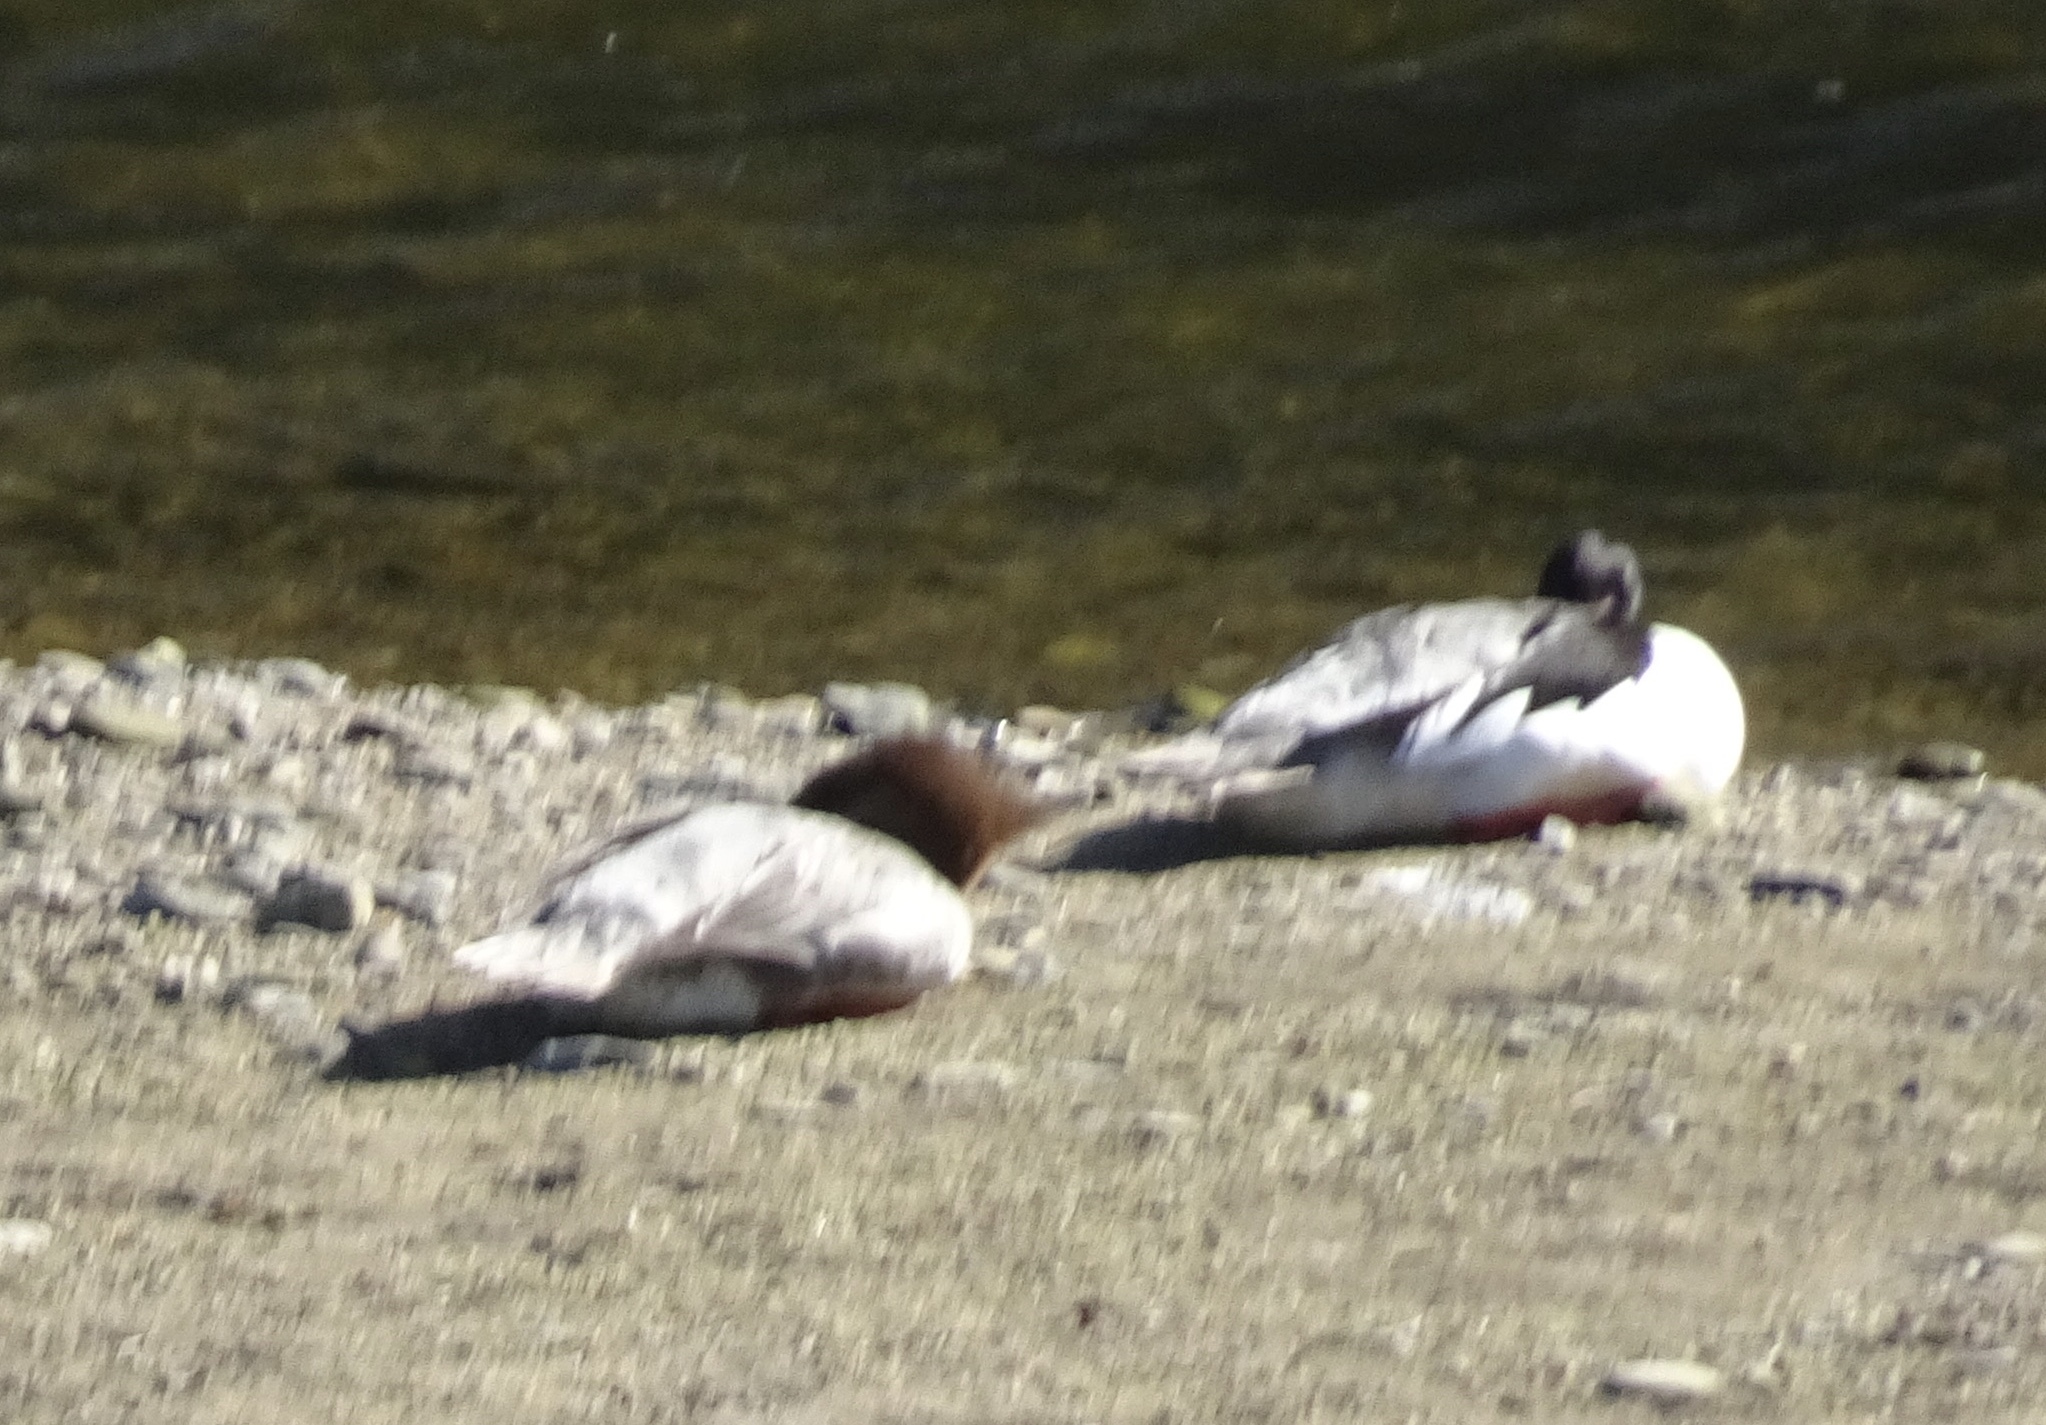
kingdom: Animalia
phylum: Chordata
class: Aves
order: Anseriformes
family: Anatidae
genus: Mergus
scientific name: Mergus merganser
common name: Common merganser
